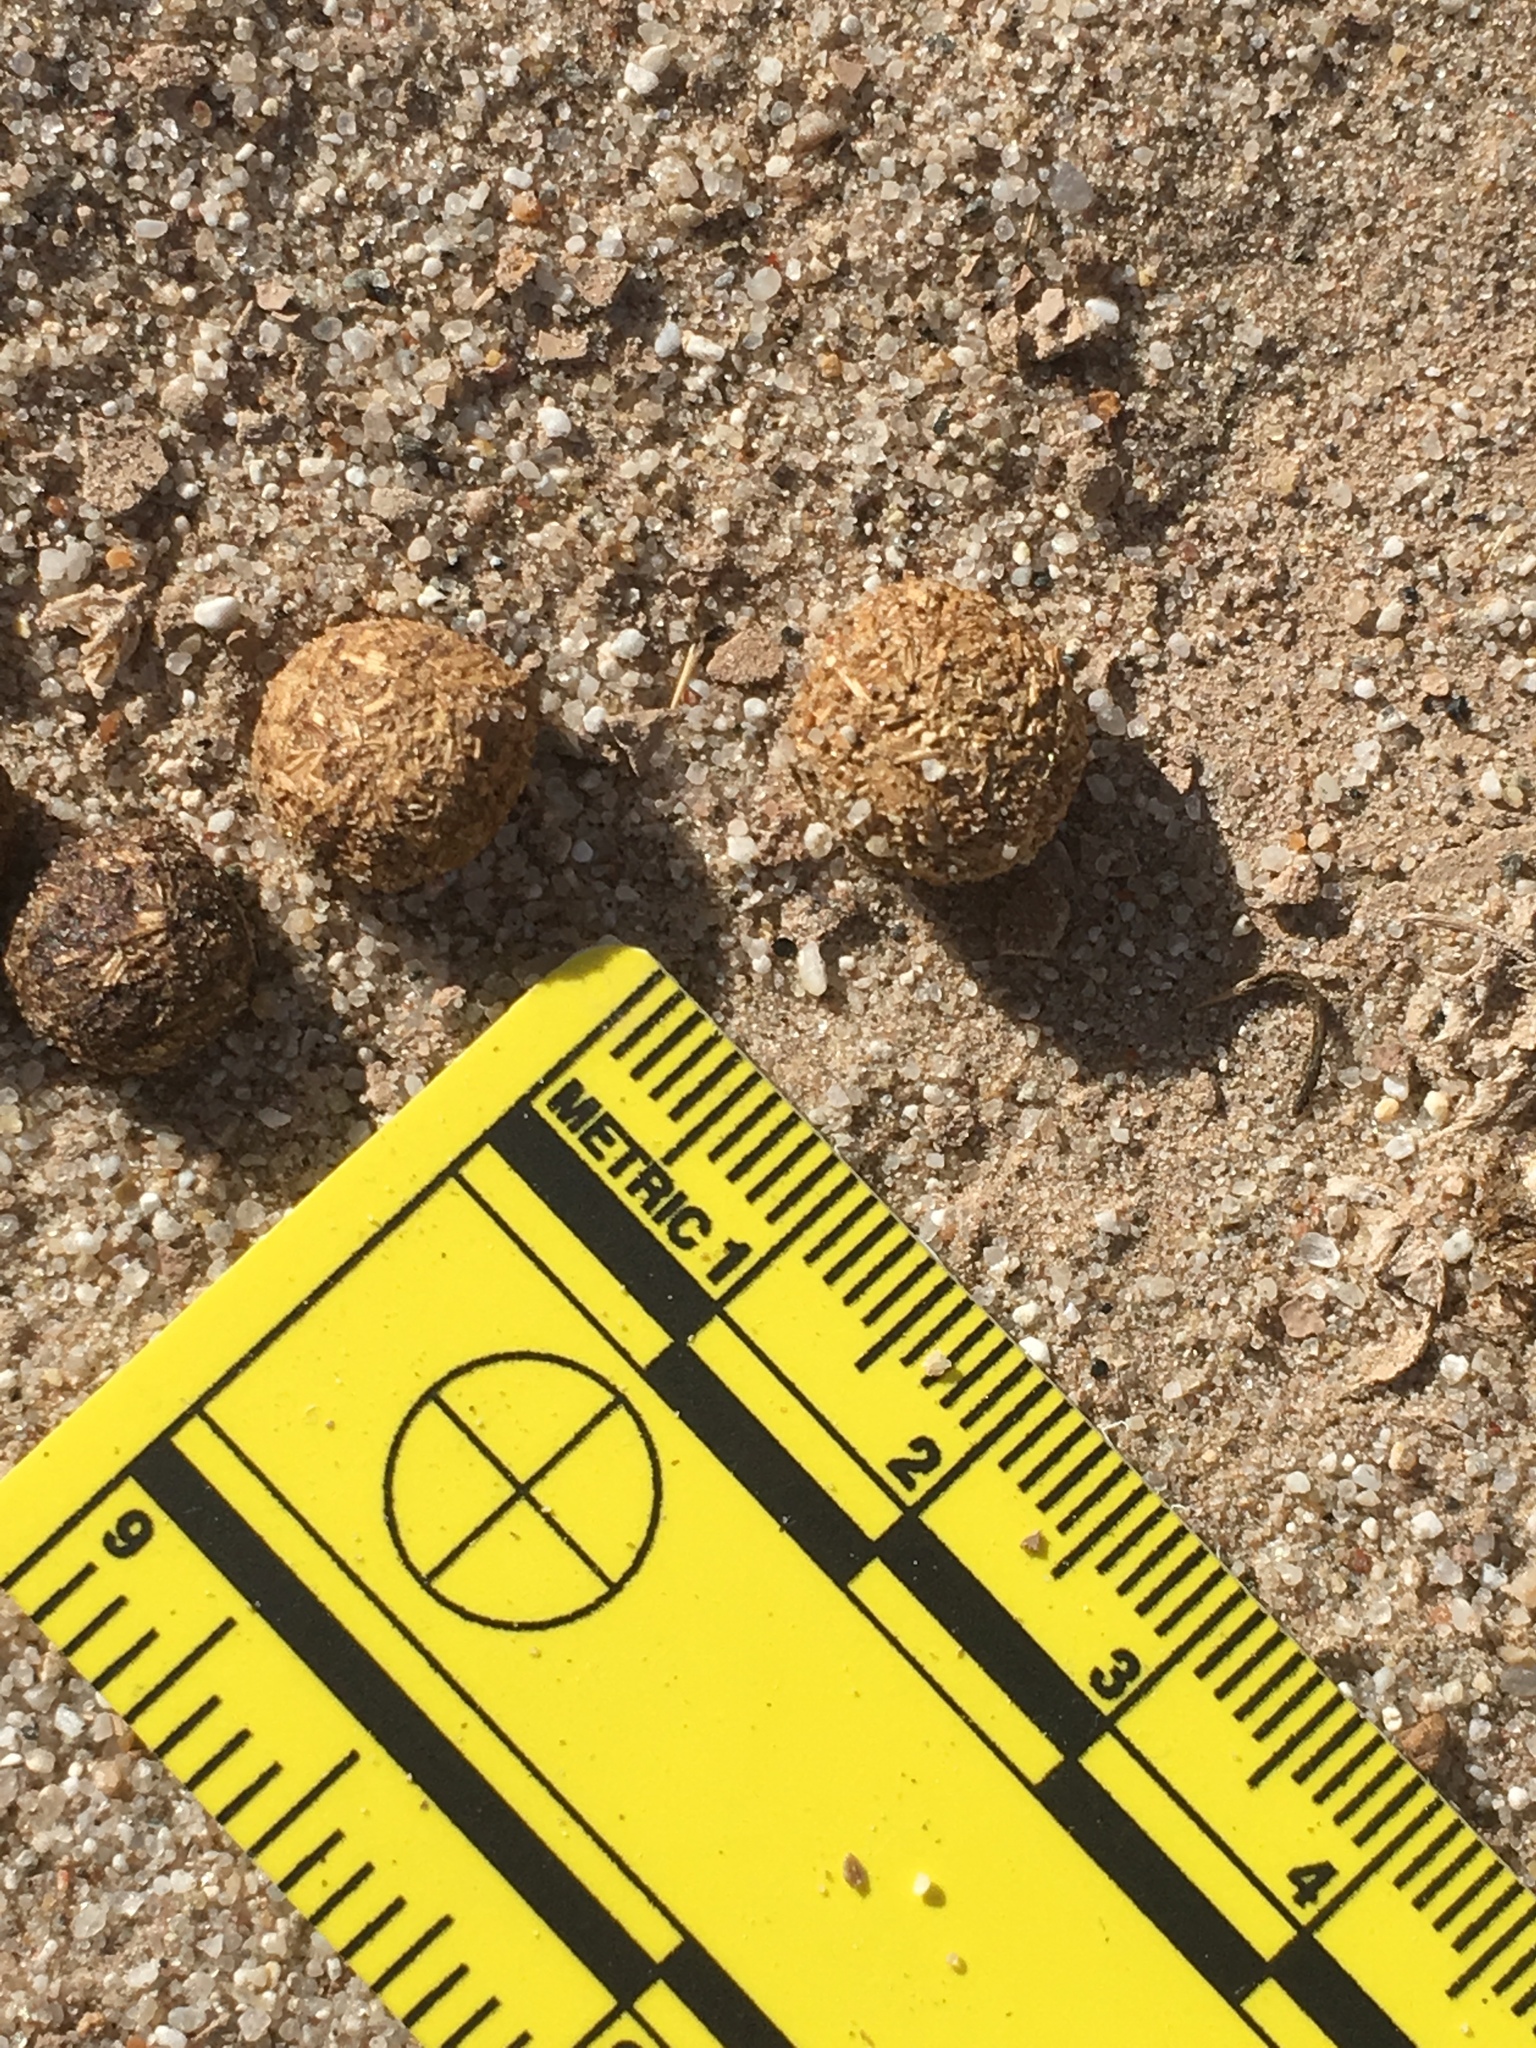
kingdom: Animalia
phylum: Chordata
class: Mammalia
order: Lagomorpha
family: Leporidae
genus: Lepus
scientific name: Lepus californicus
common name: Black-tailed jackrabbit
